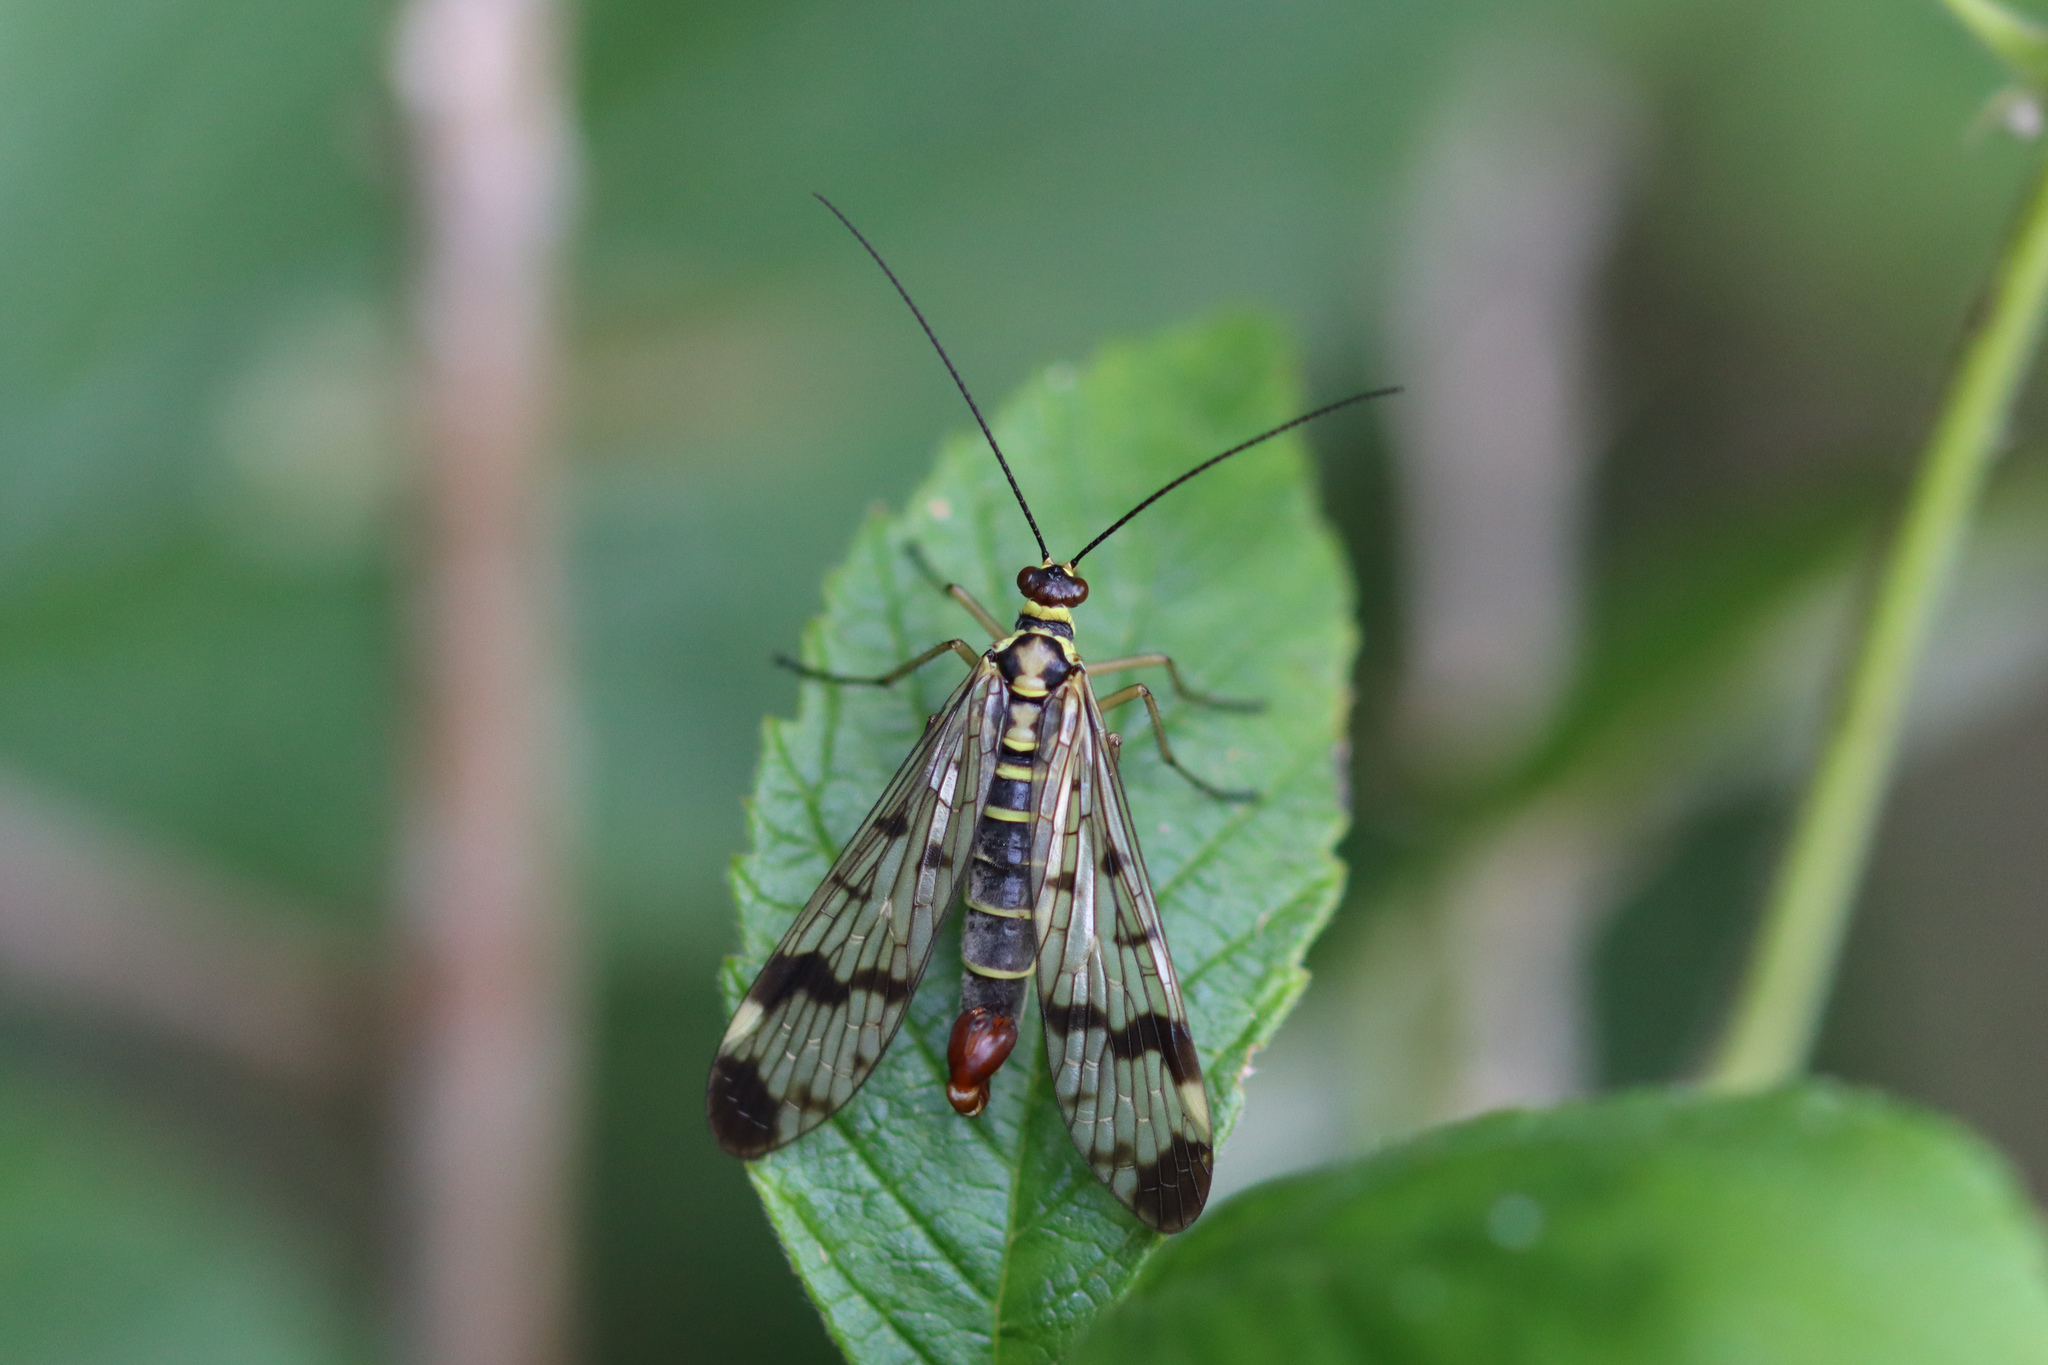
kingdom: Animalia
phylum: Arthropoda
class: Insecta
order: Mecoptera
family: Panorpidae
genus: Panorpa
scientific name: Panorpa communis
